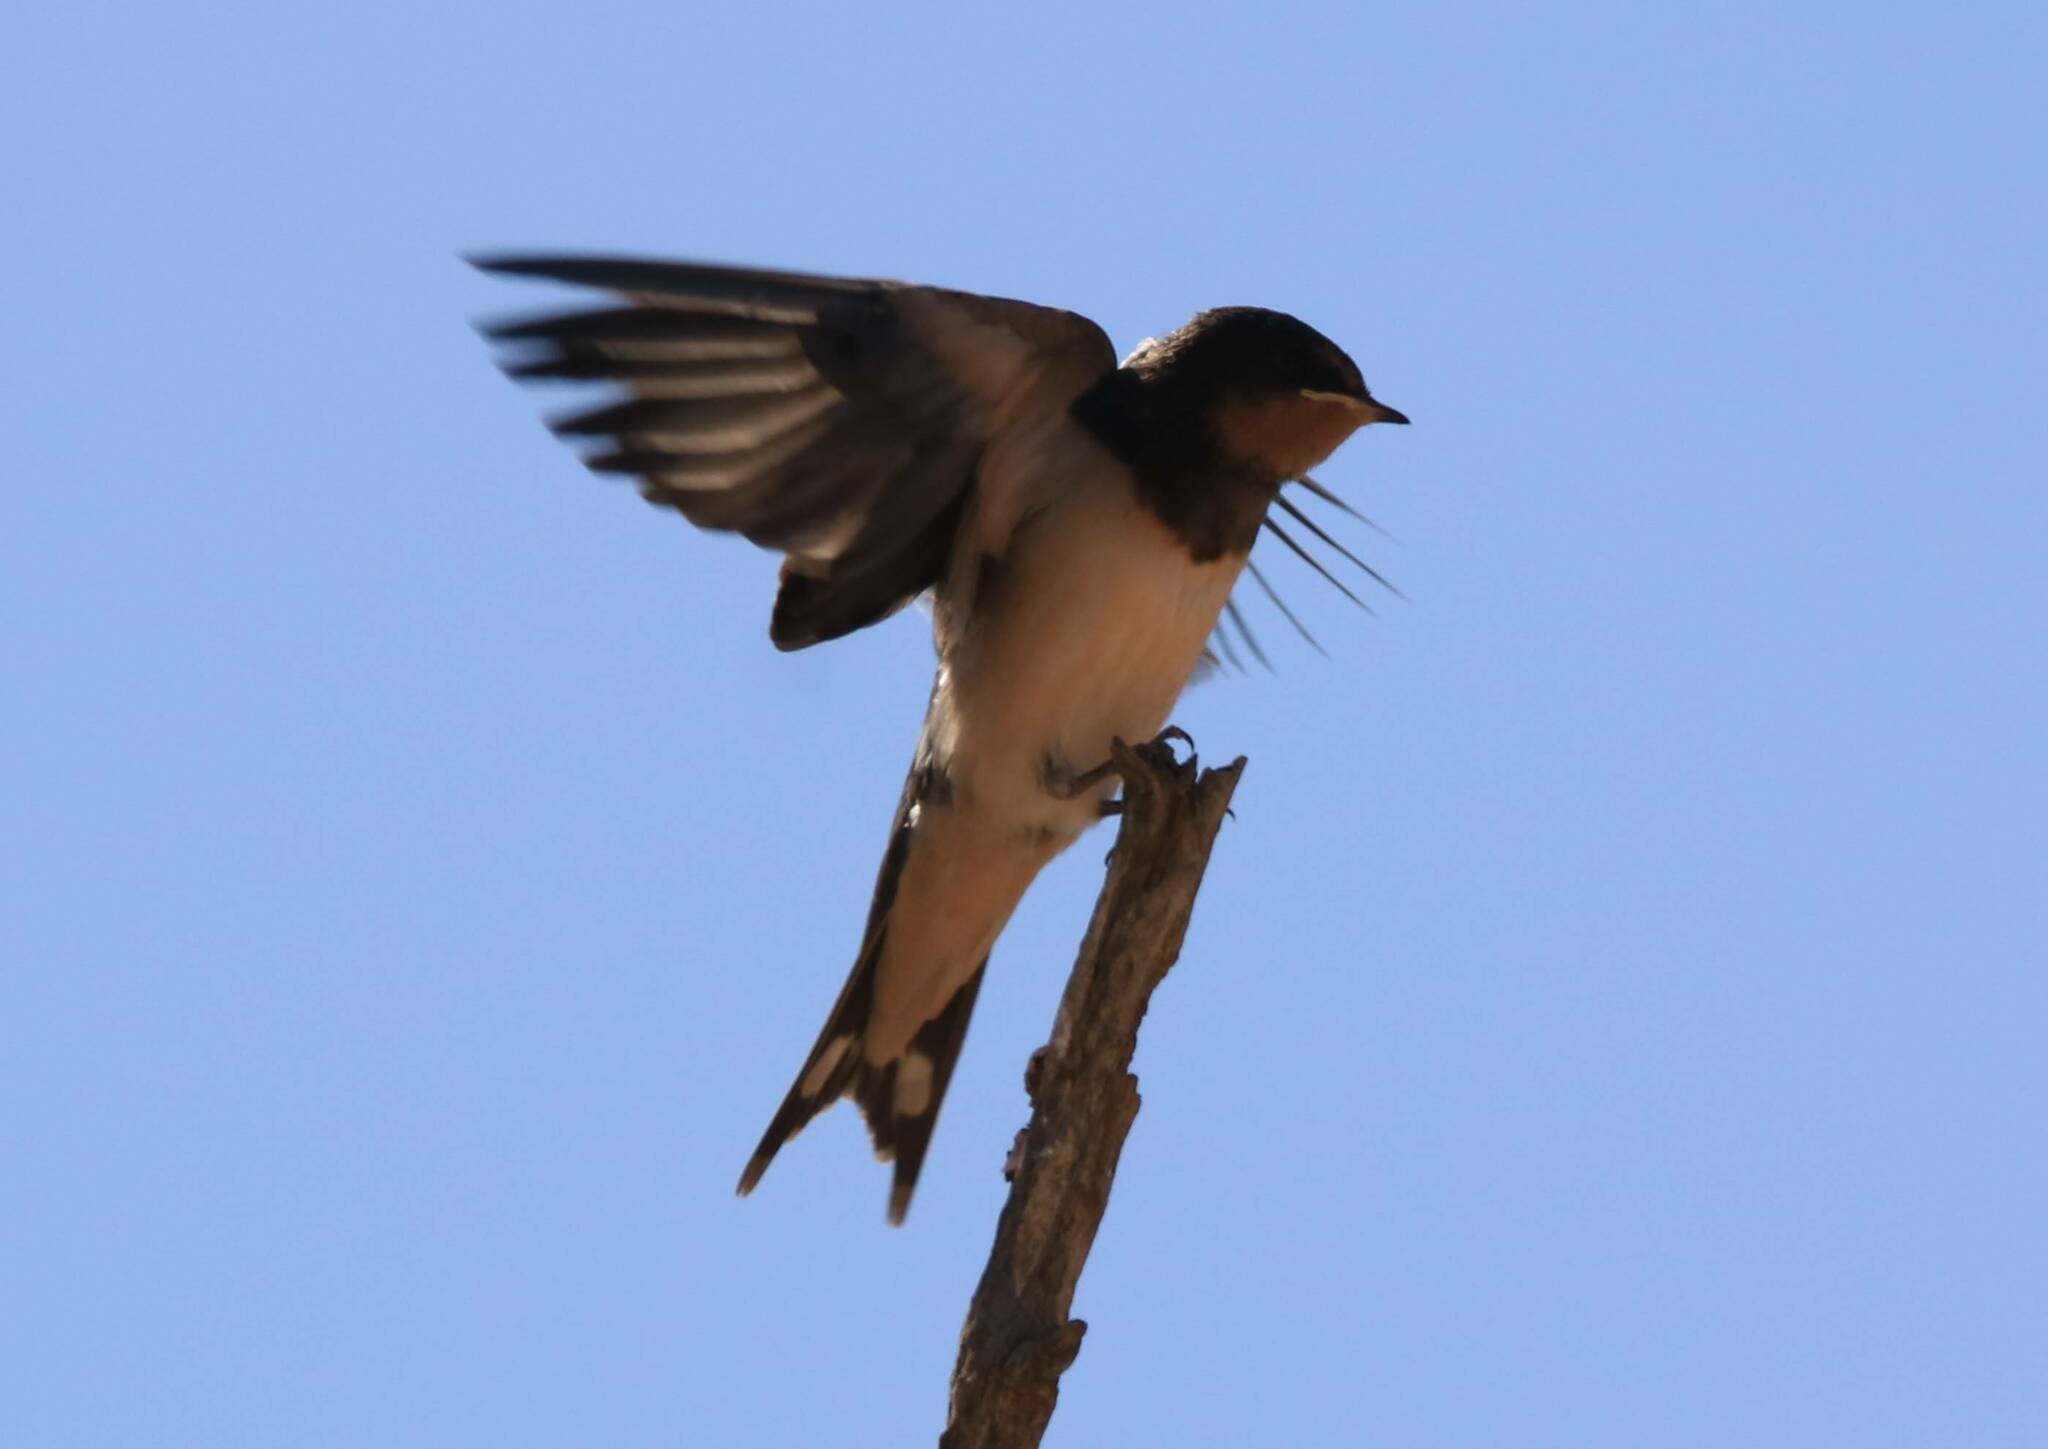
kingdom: Animalia
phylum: Chordata
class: Aves
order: Passeriformes
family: Hirundinidae
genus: Hirundo
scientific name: Hirundo rustica
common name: Barn swallow
